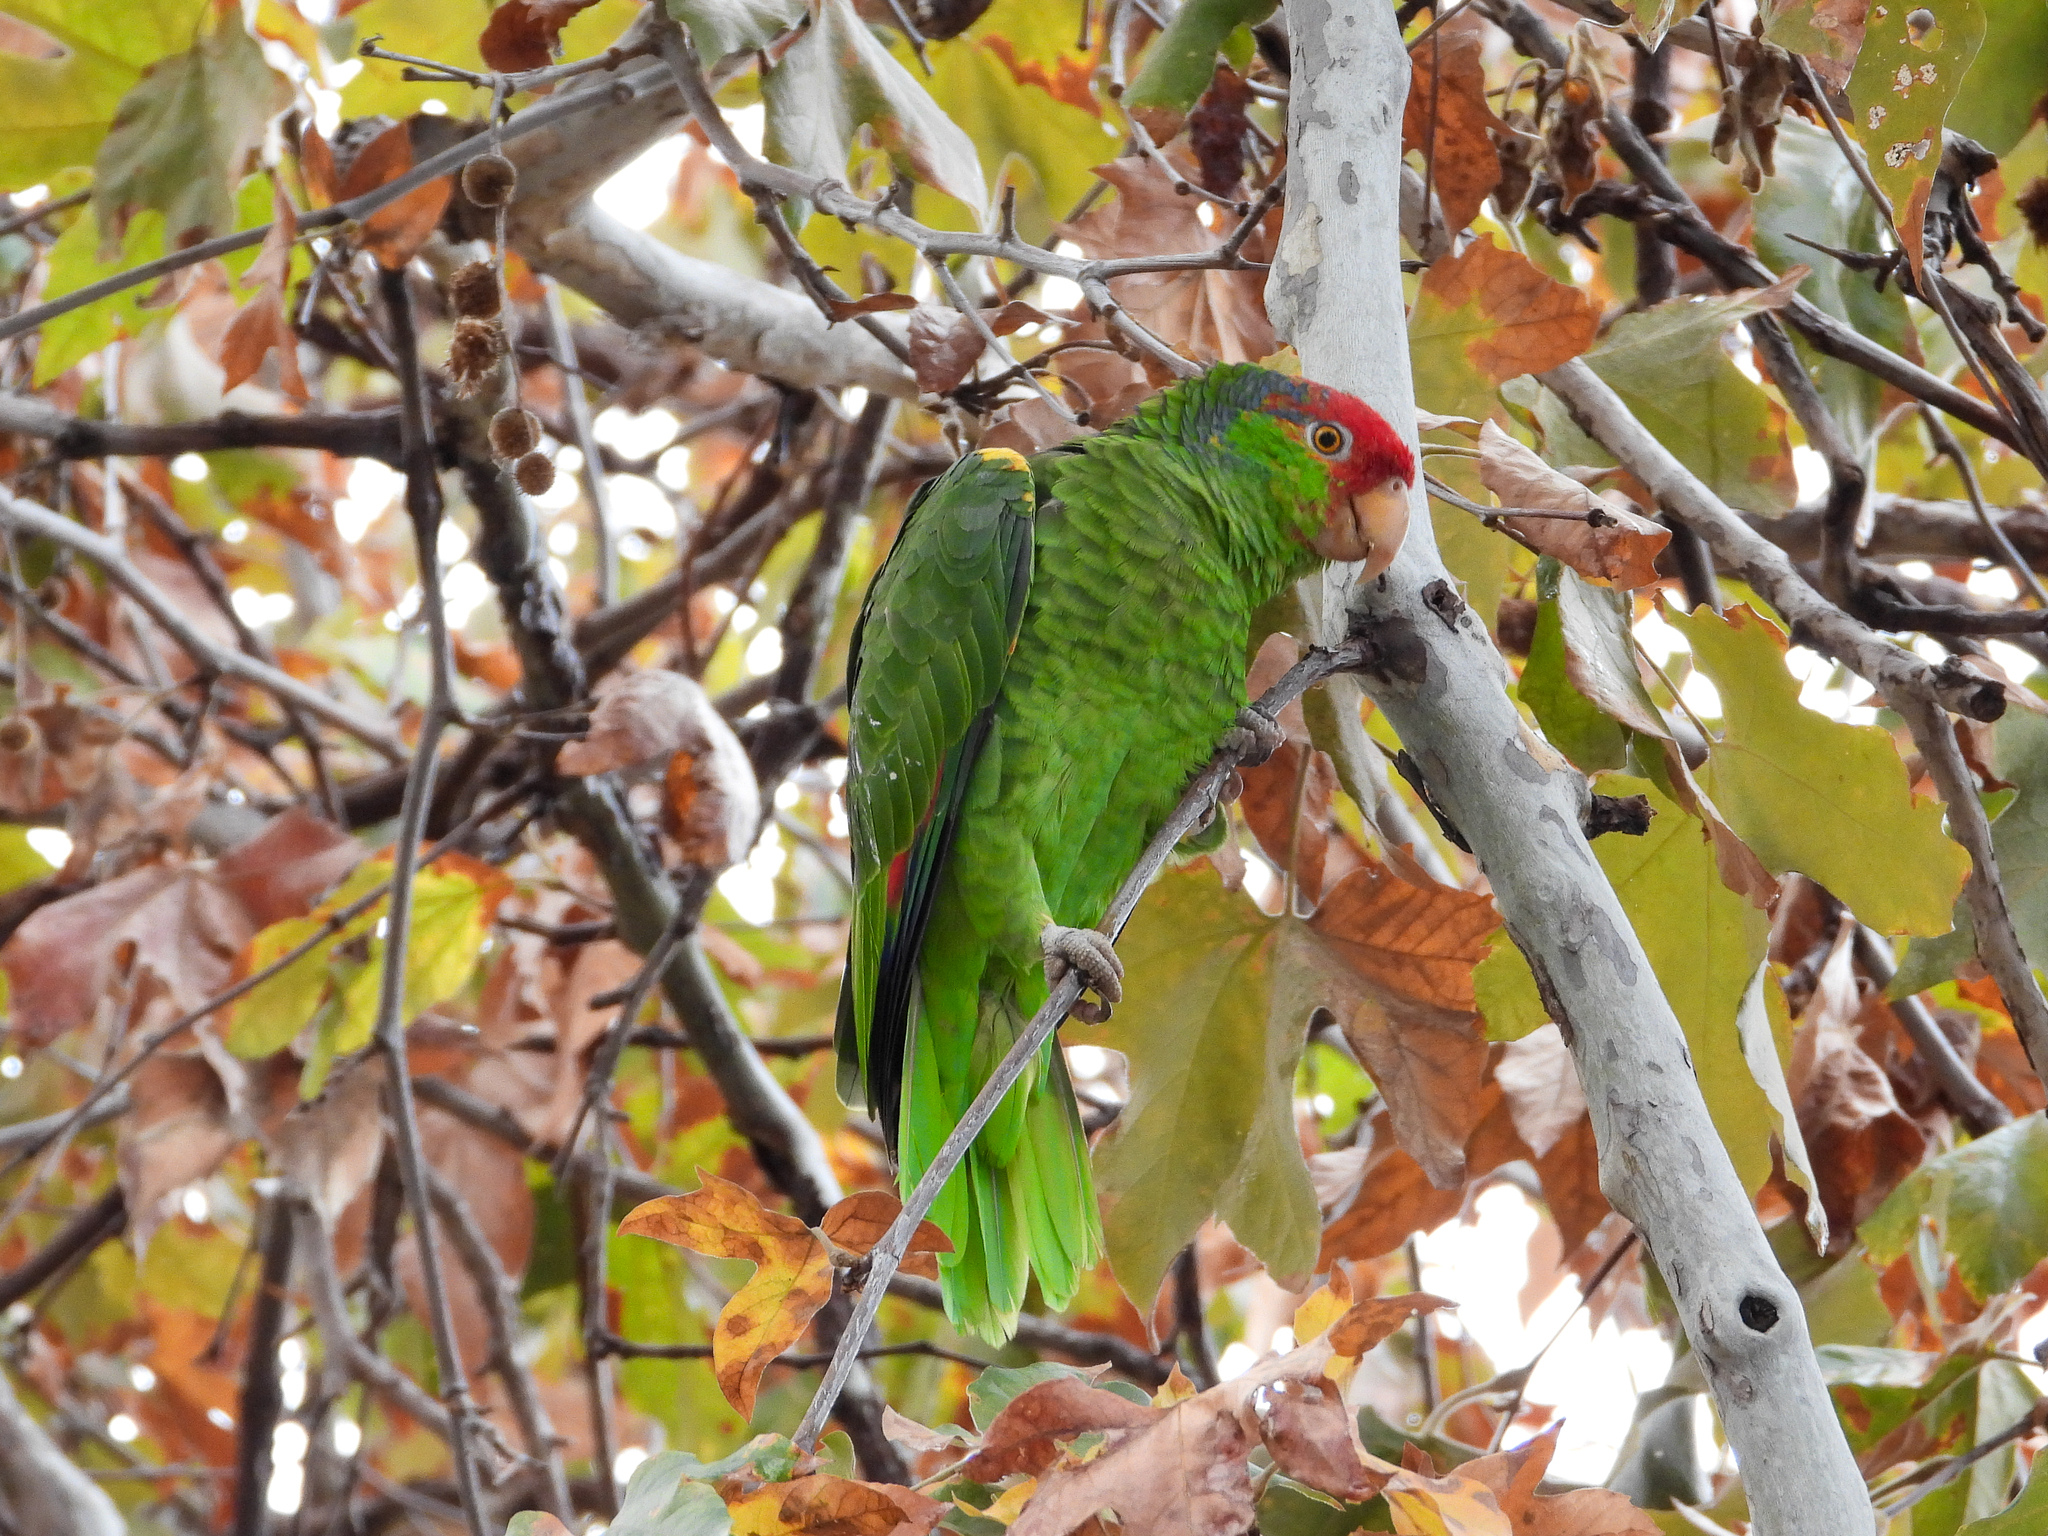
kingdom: Animalia
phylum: Chordata
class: Aves
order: Psittaciformes
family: Psittacidae
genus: Amazona
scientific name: Amazona
